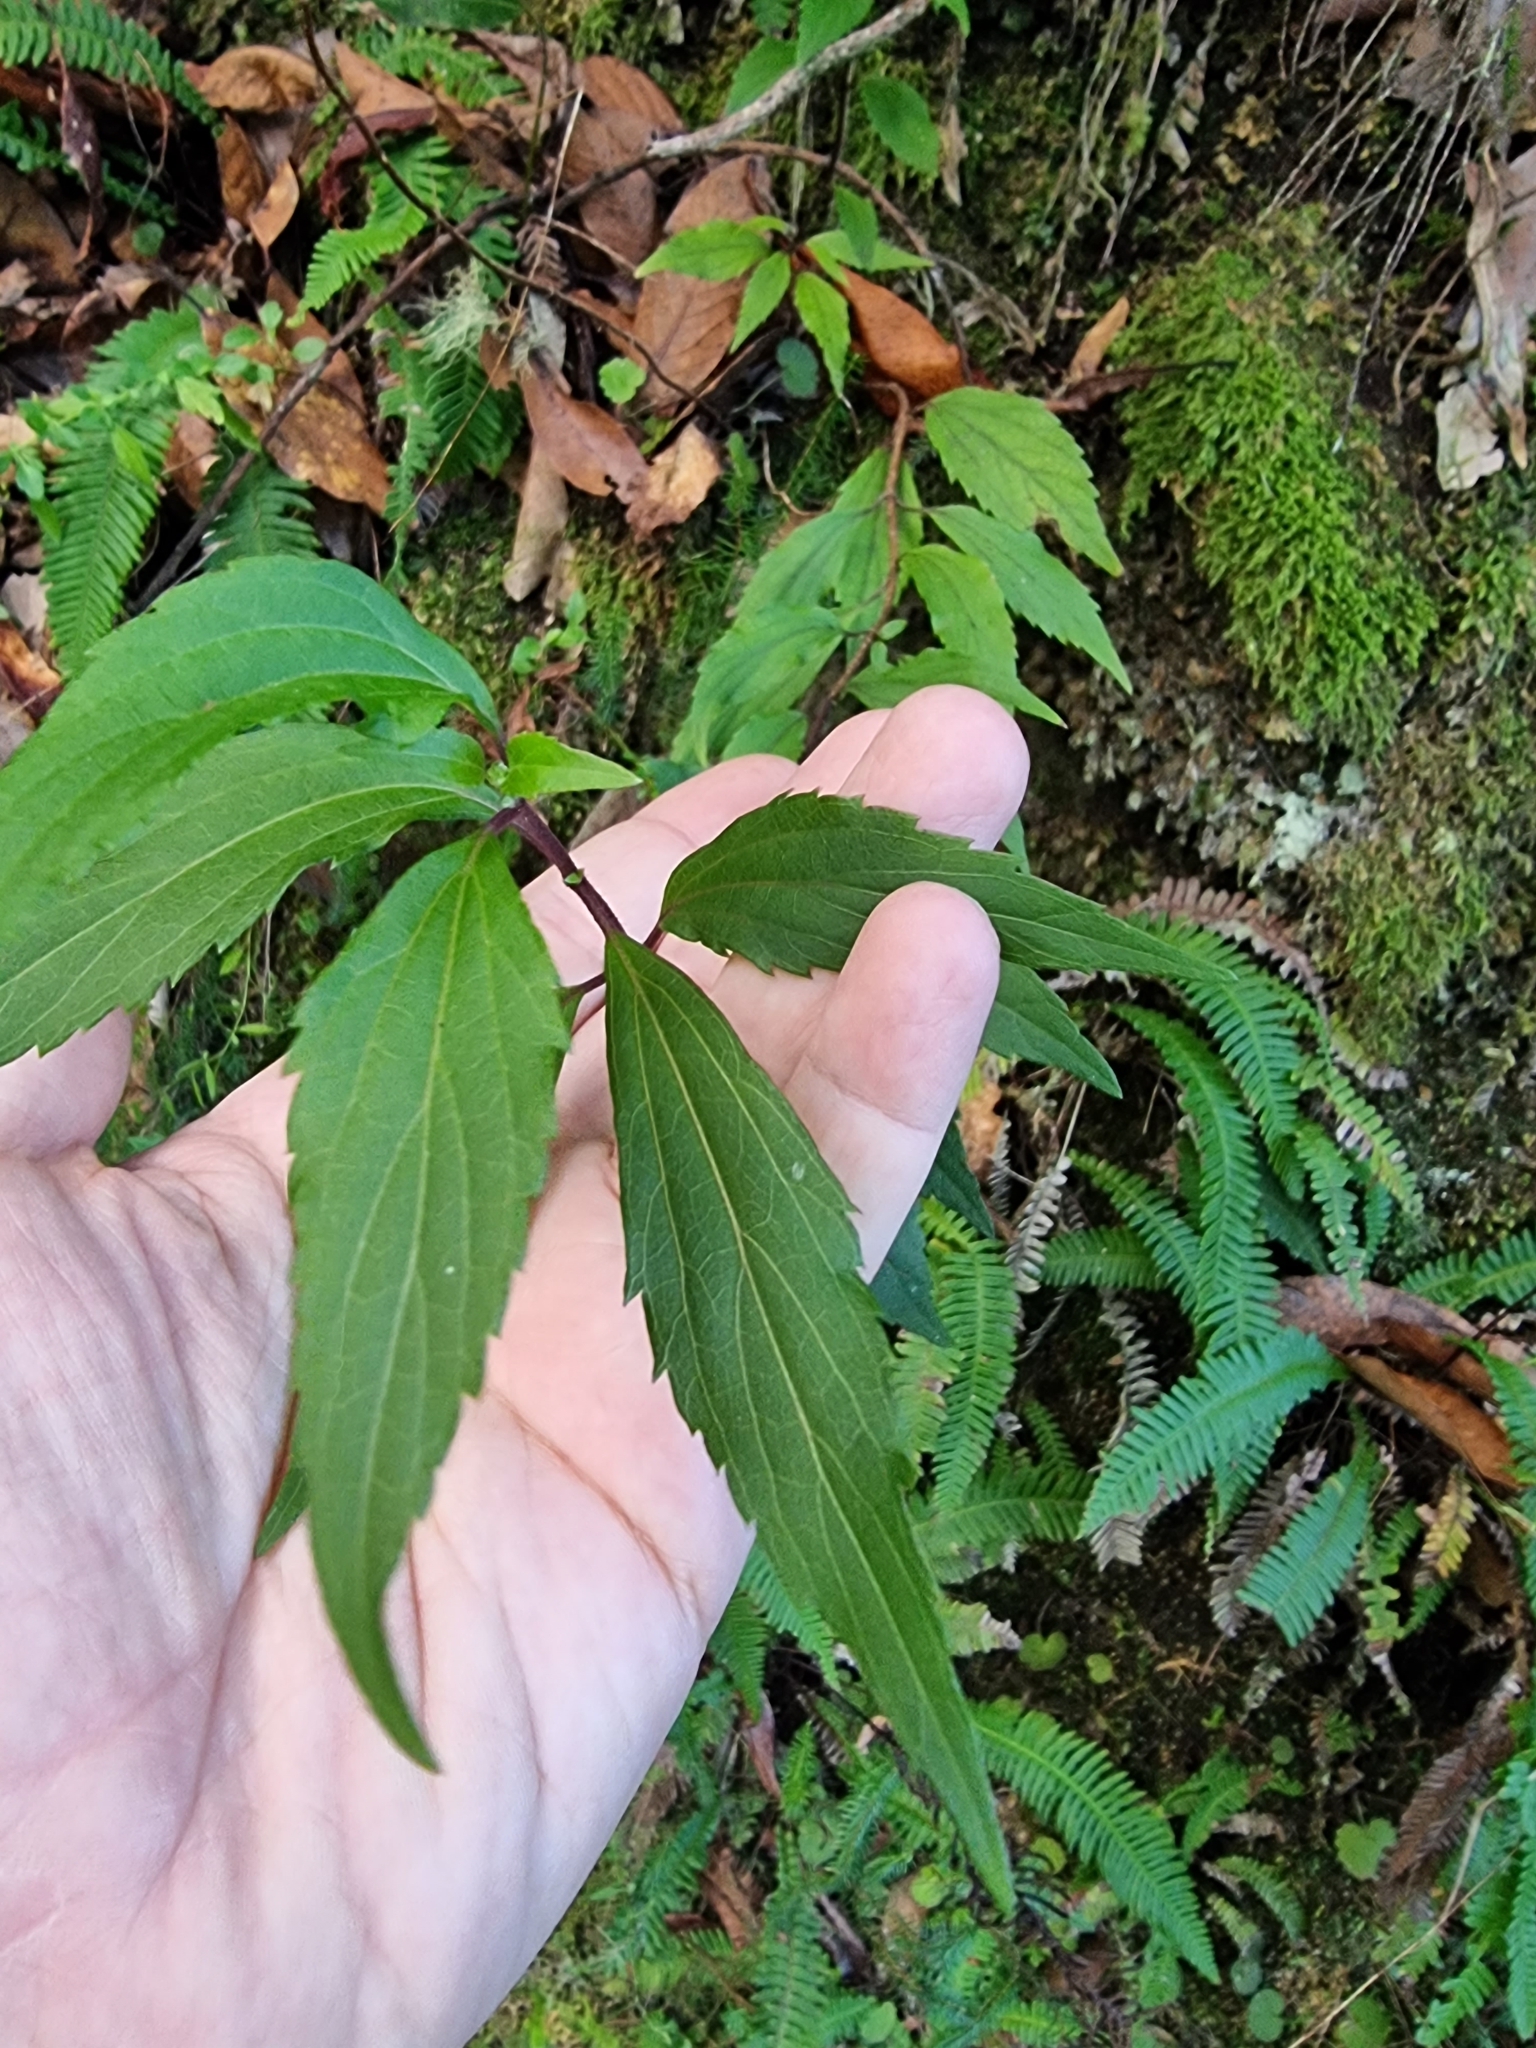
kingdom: Plantae
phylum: Tracheophyta
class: Magnoliopsida
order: Asterales
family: Asteraceae
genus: Ageratina
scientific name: Ageratina riparia
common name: Creeping croftonweed
